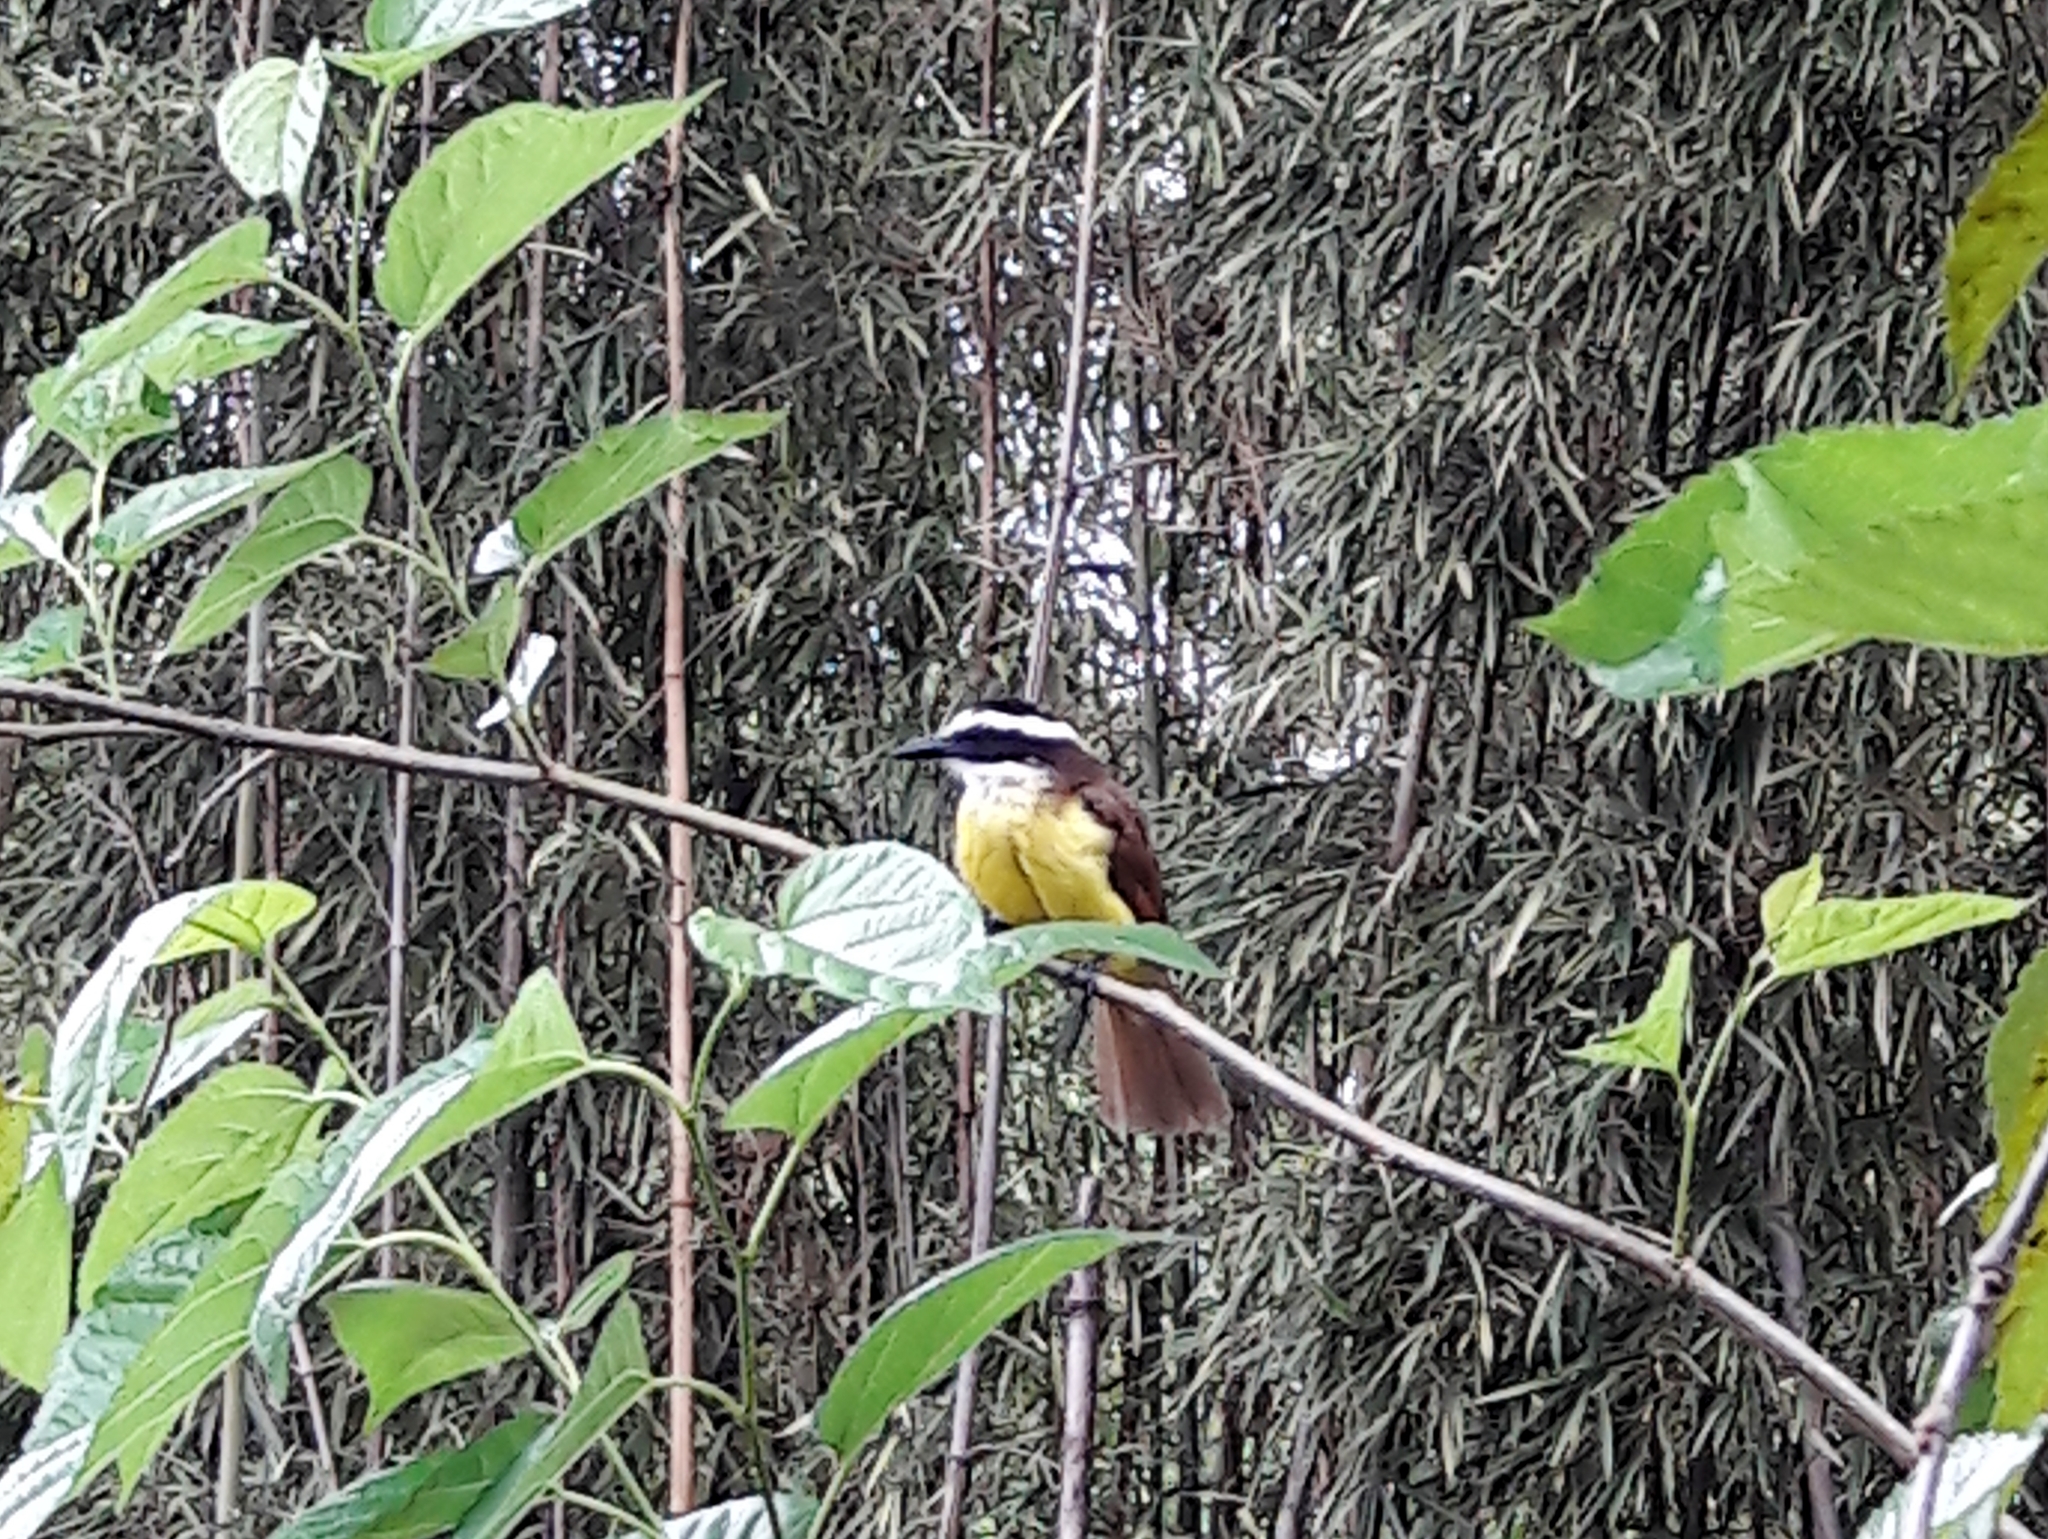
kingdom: Animalia
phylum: Chordata
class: Aves
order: Passeriformes
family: Tyrannidae
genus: Pitangus
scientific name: Pitangus sulphuratus
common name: Great kiskadee
